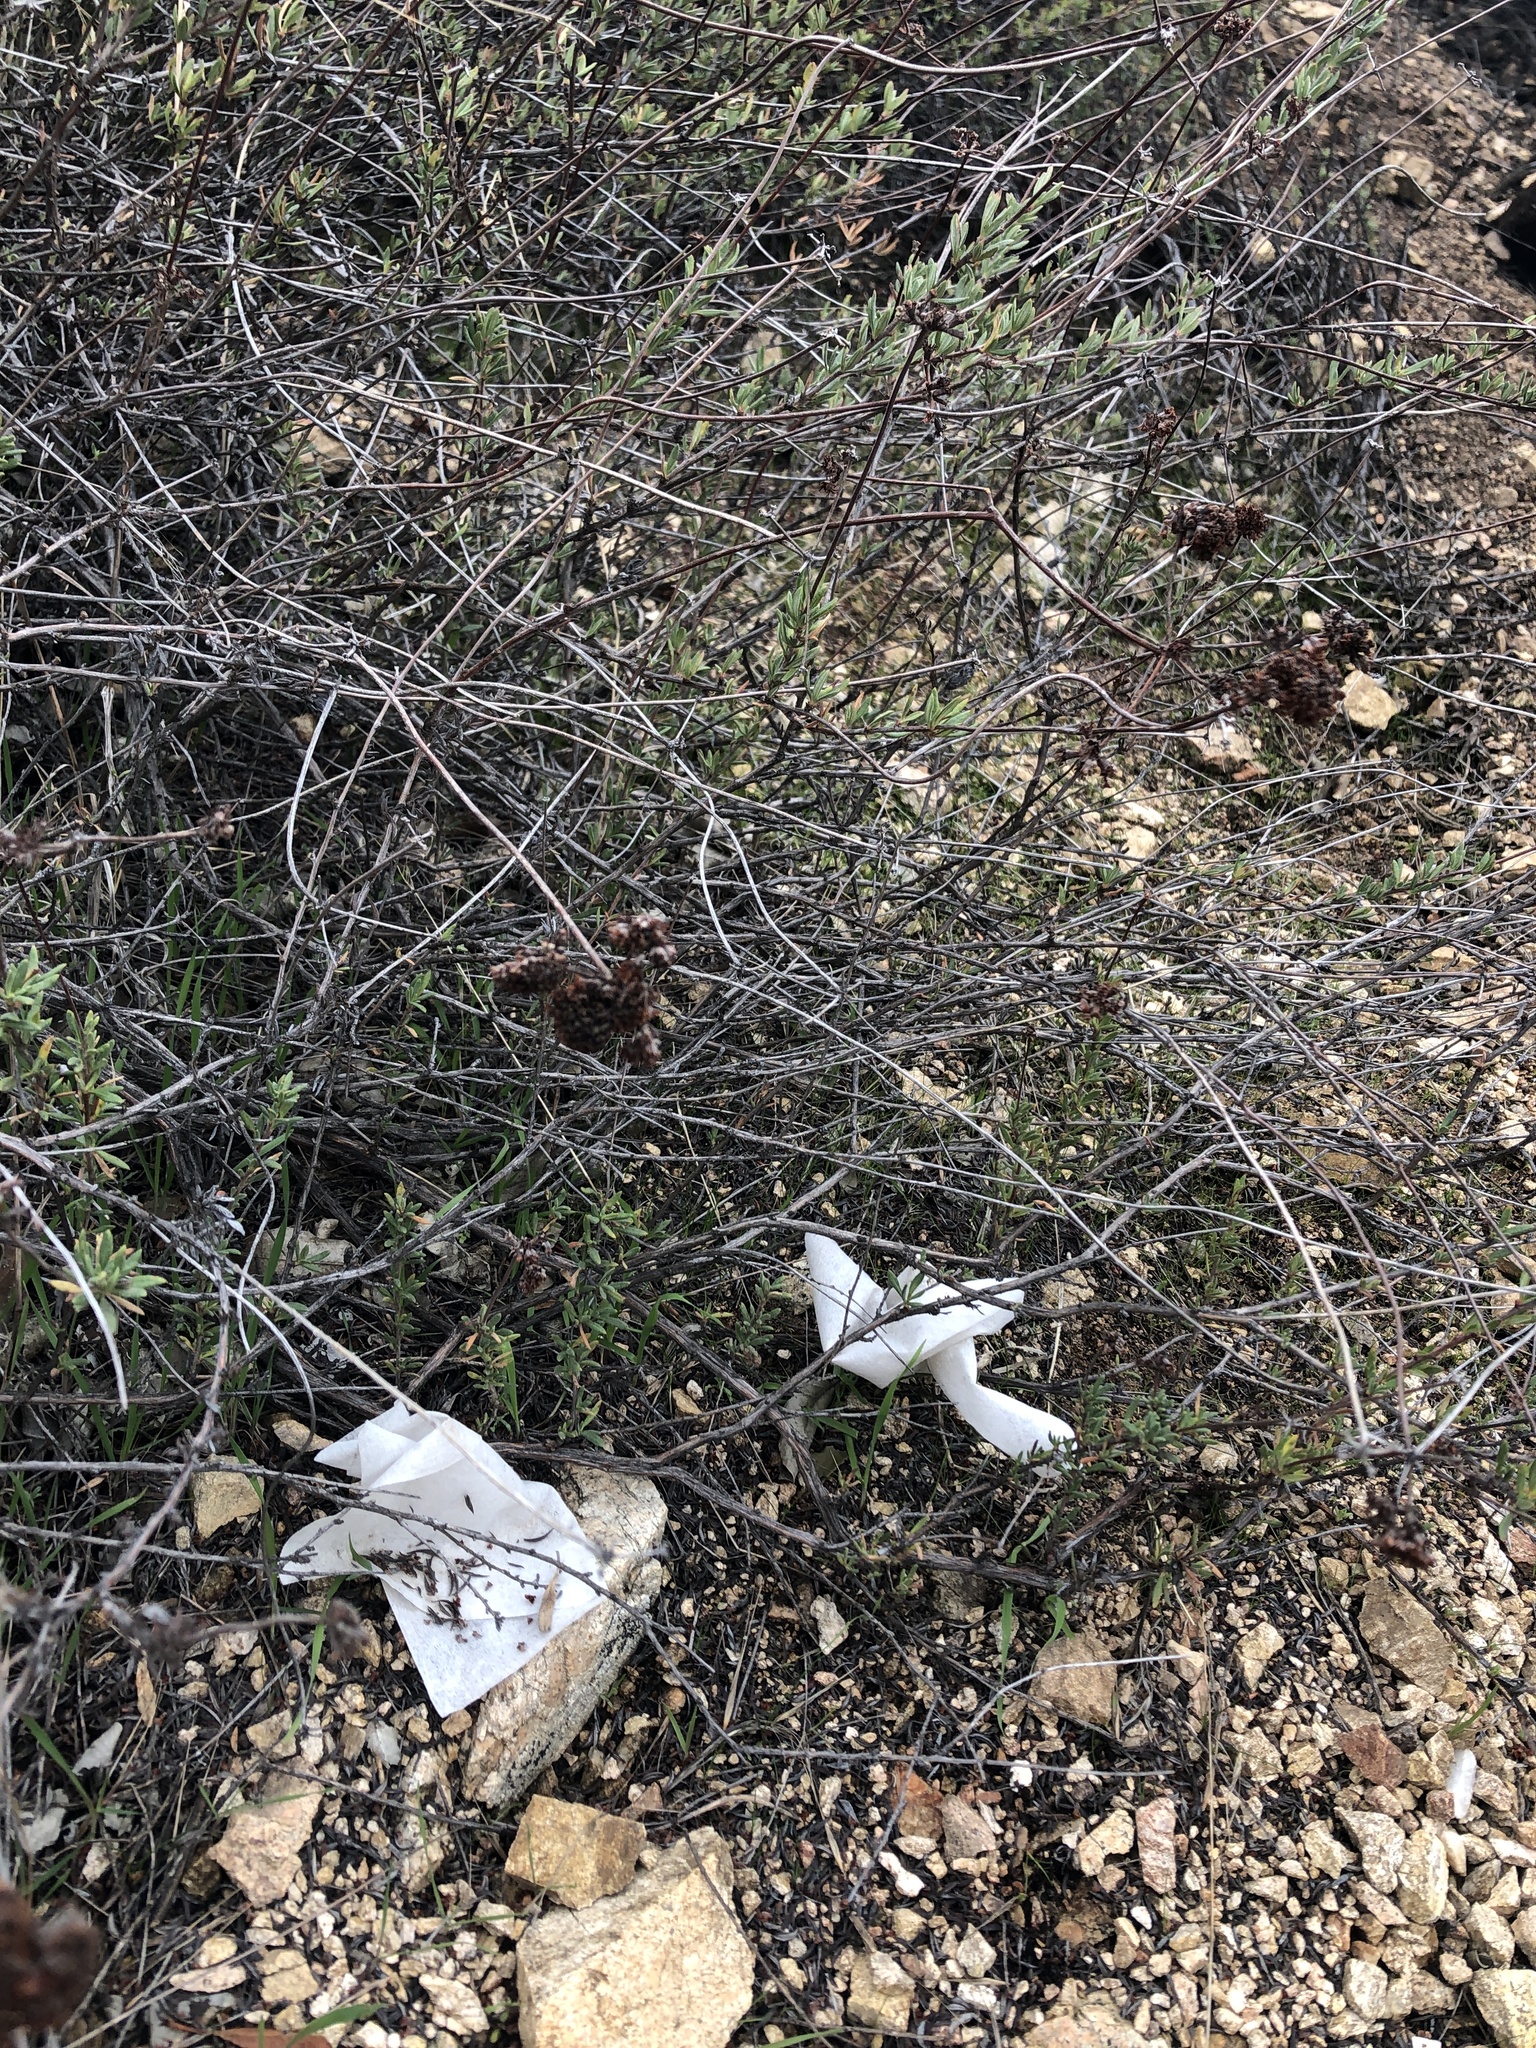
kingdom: Plantae
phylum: Tracheophyta
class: Magnoliopsida
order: Caryophyllales
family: Polygonaceae
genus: Eriogonum
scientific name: Eriogonum fasciculatum
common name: California wild buckwheat
